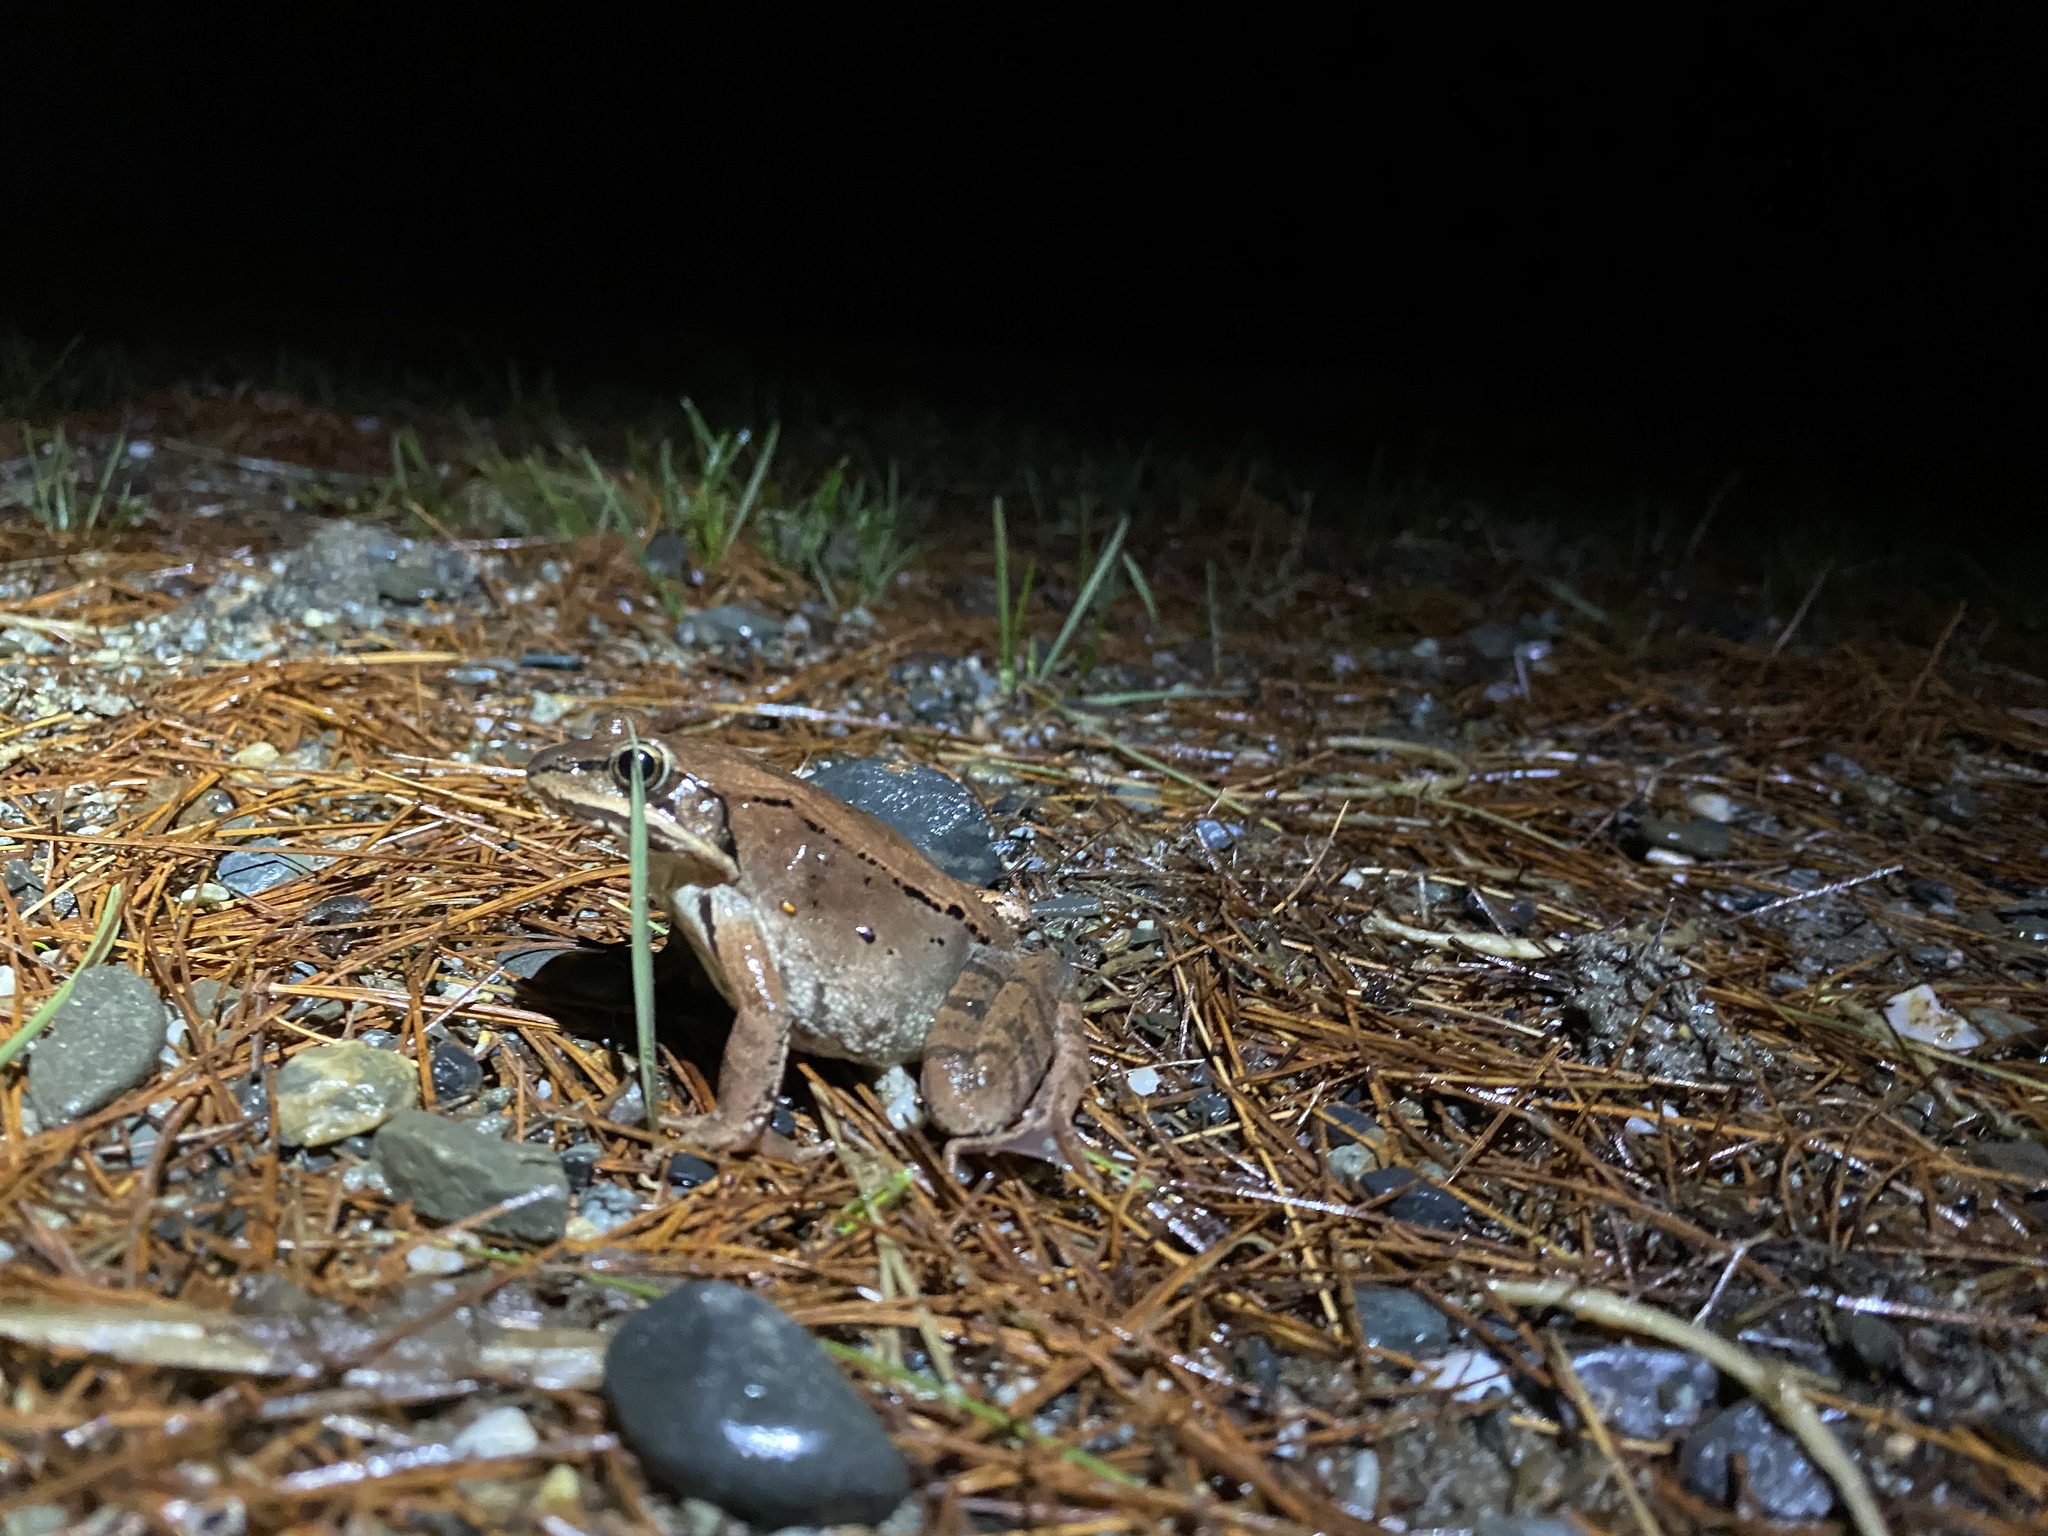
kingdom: Animalia
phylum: Chordata
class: Amphibia
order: Anura
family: Ranidae
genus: Lithobates
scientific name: Lithobates sylvaticus
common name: Wood frog
